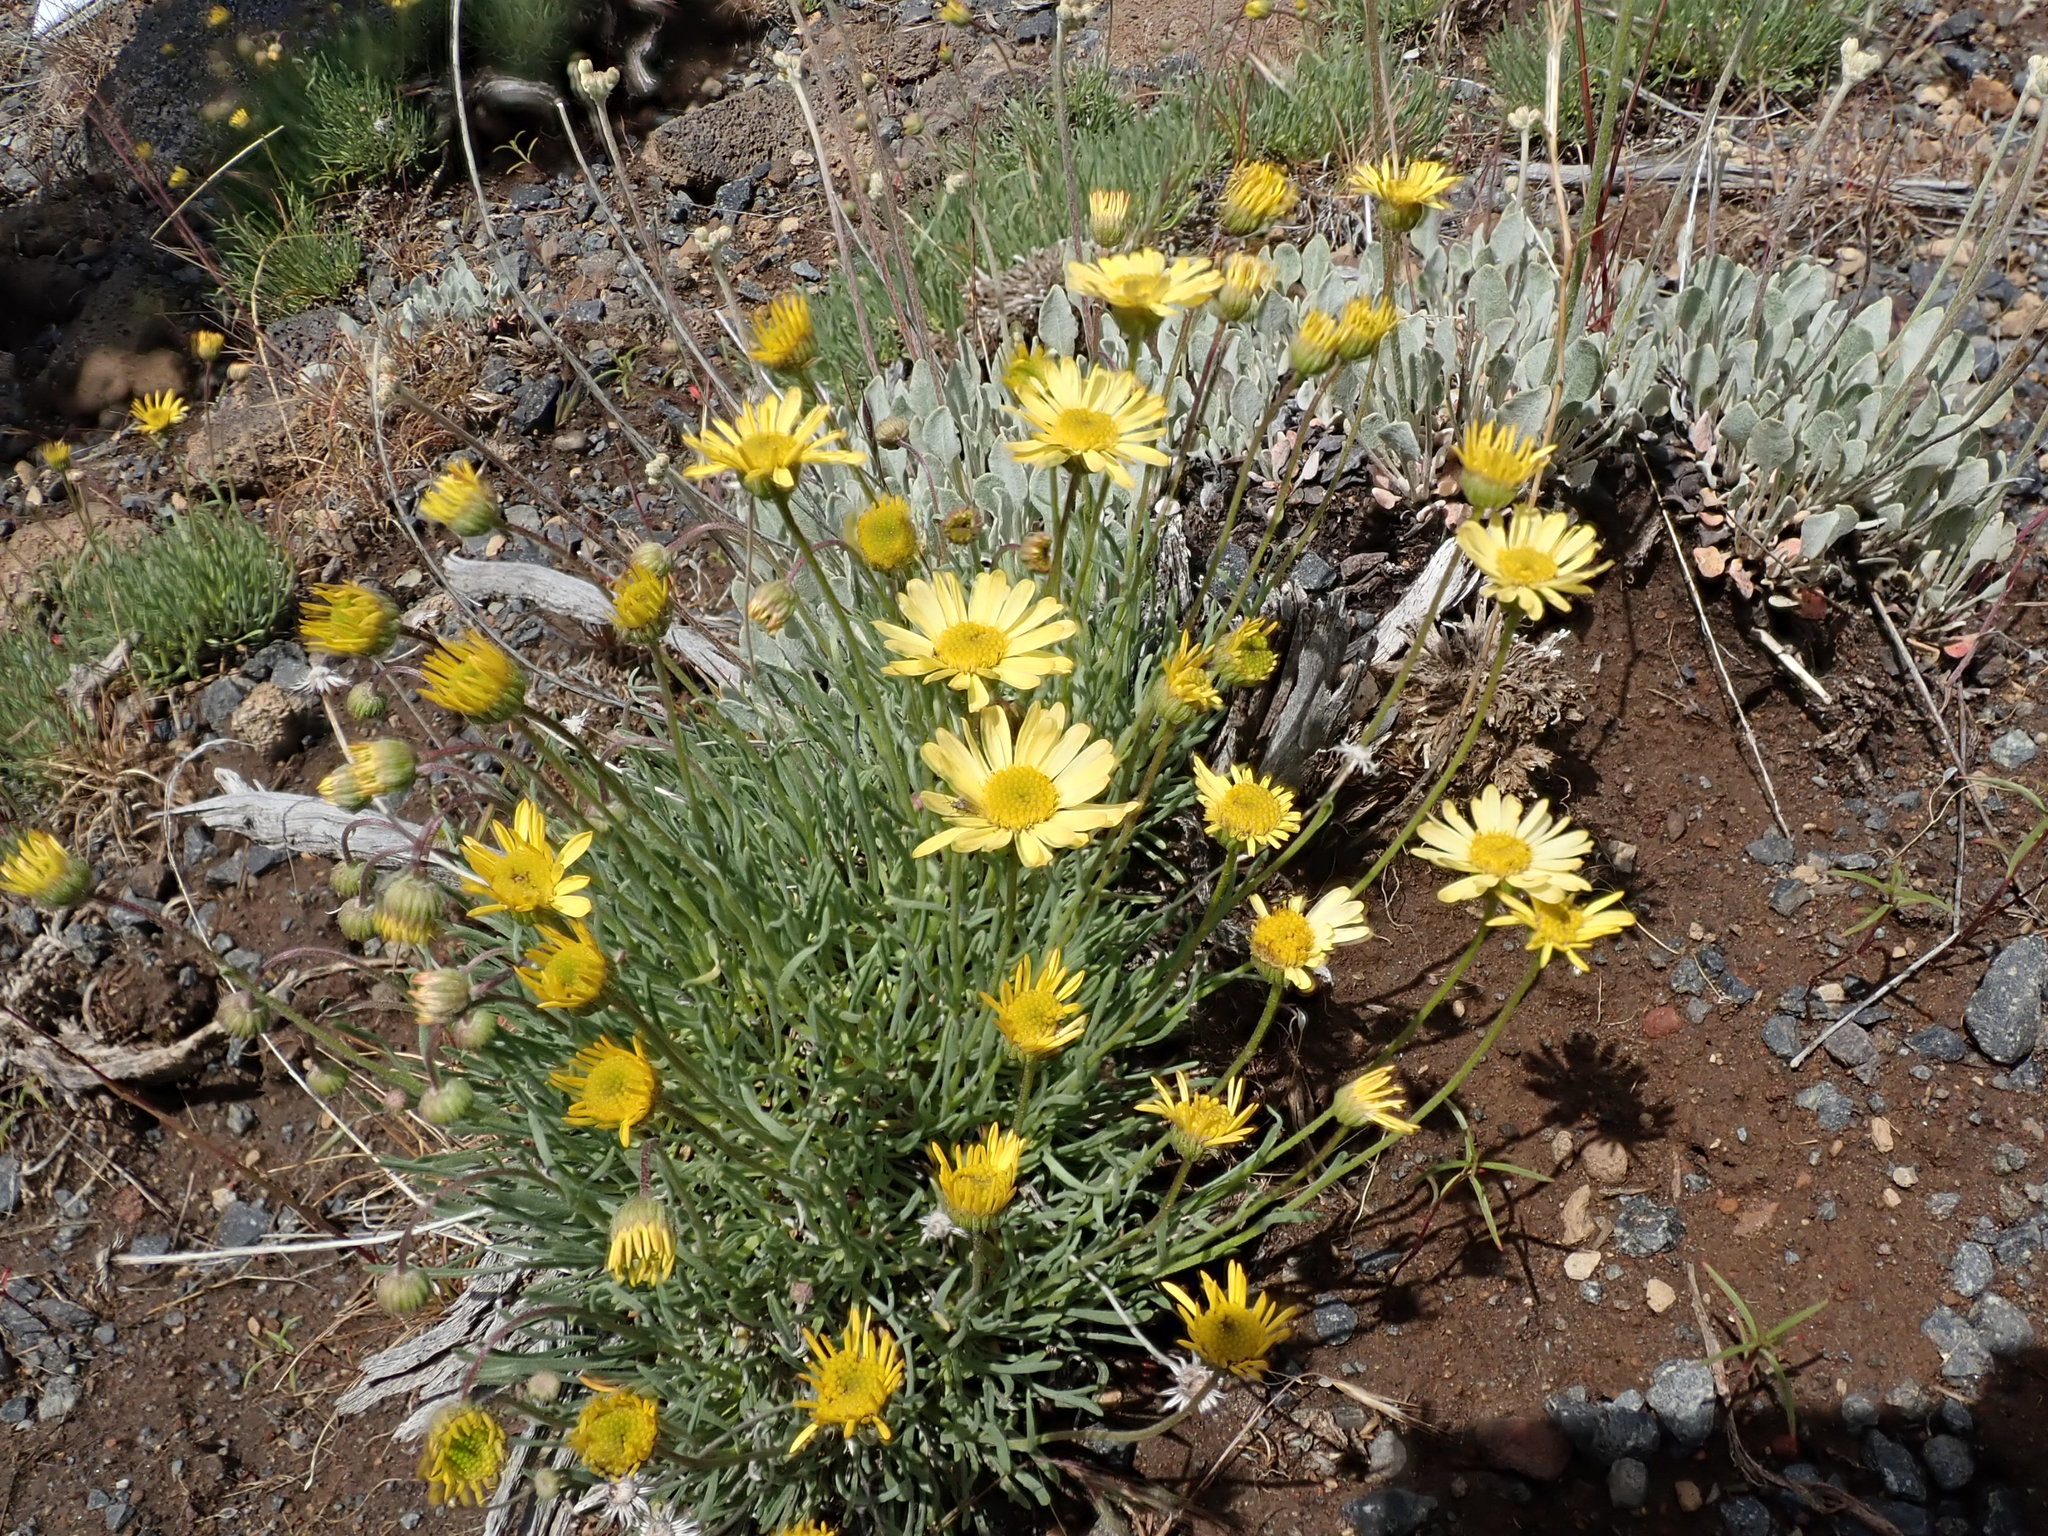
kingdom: Plantae
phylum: Tracheophyta
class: Magnoliopsida
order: Asterales
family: Asteraceae
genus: Erigeron
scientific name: Erigeron linearis
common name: Desert yellow fleabane
